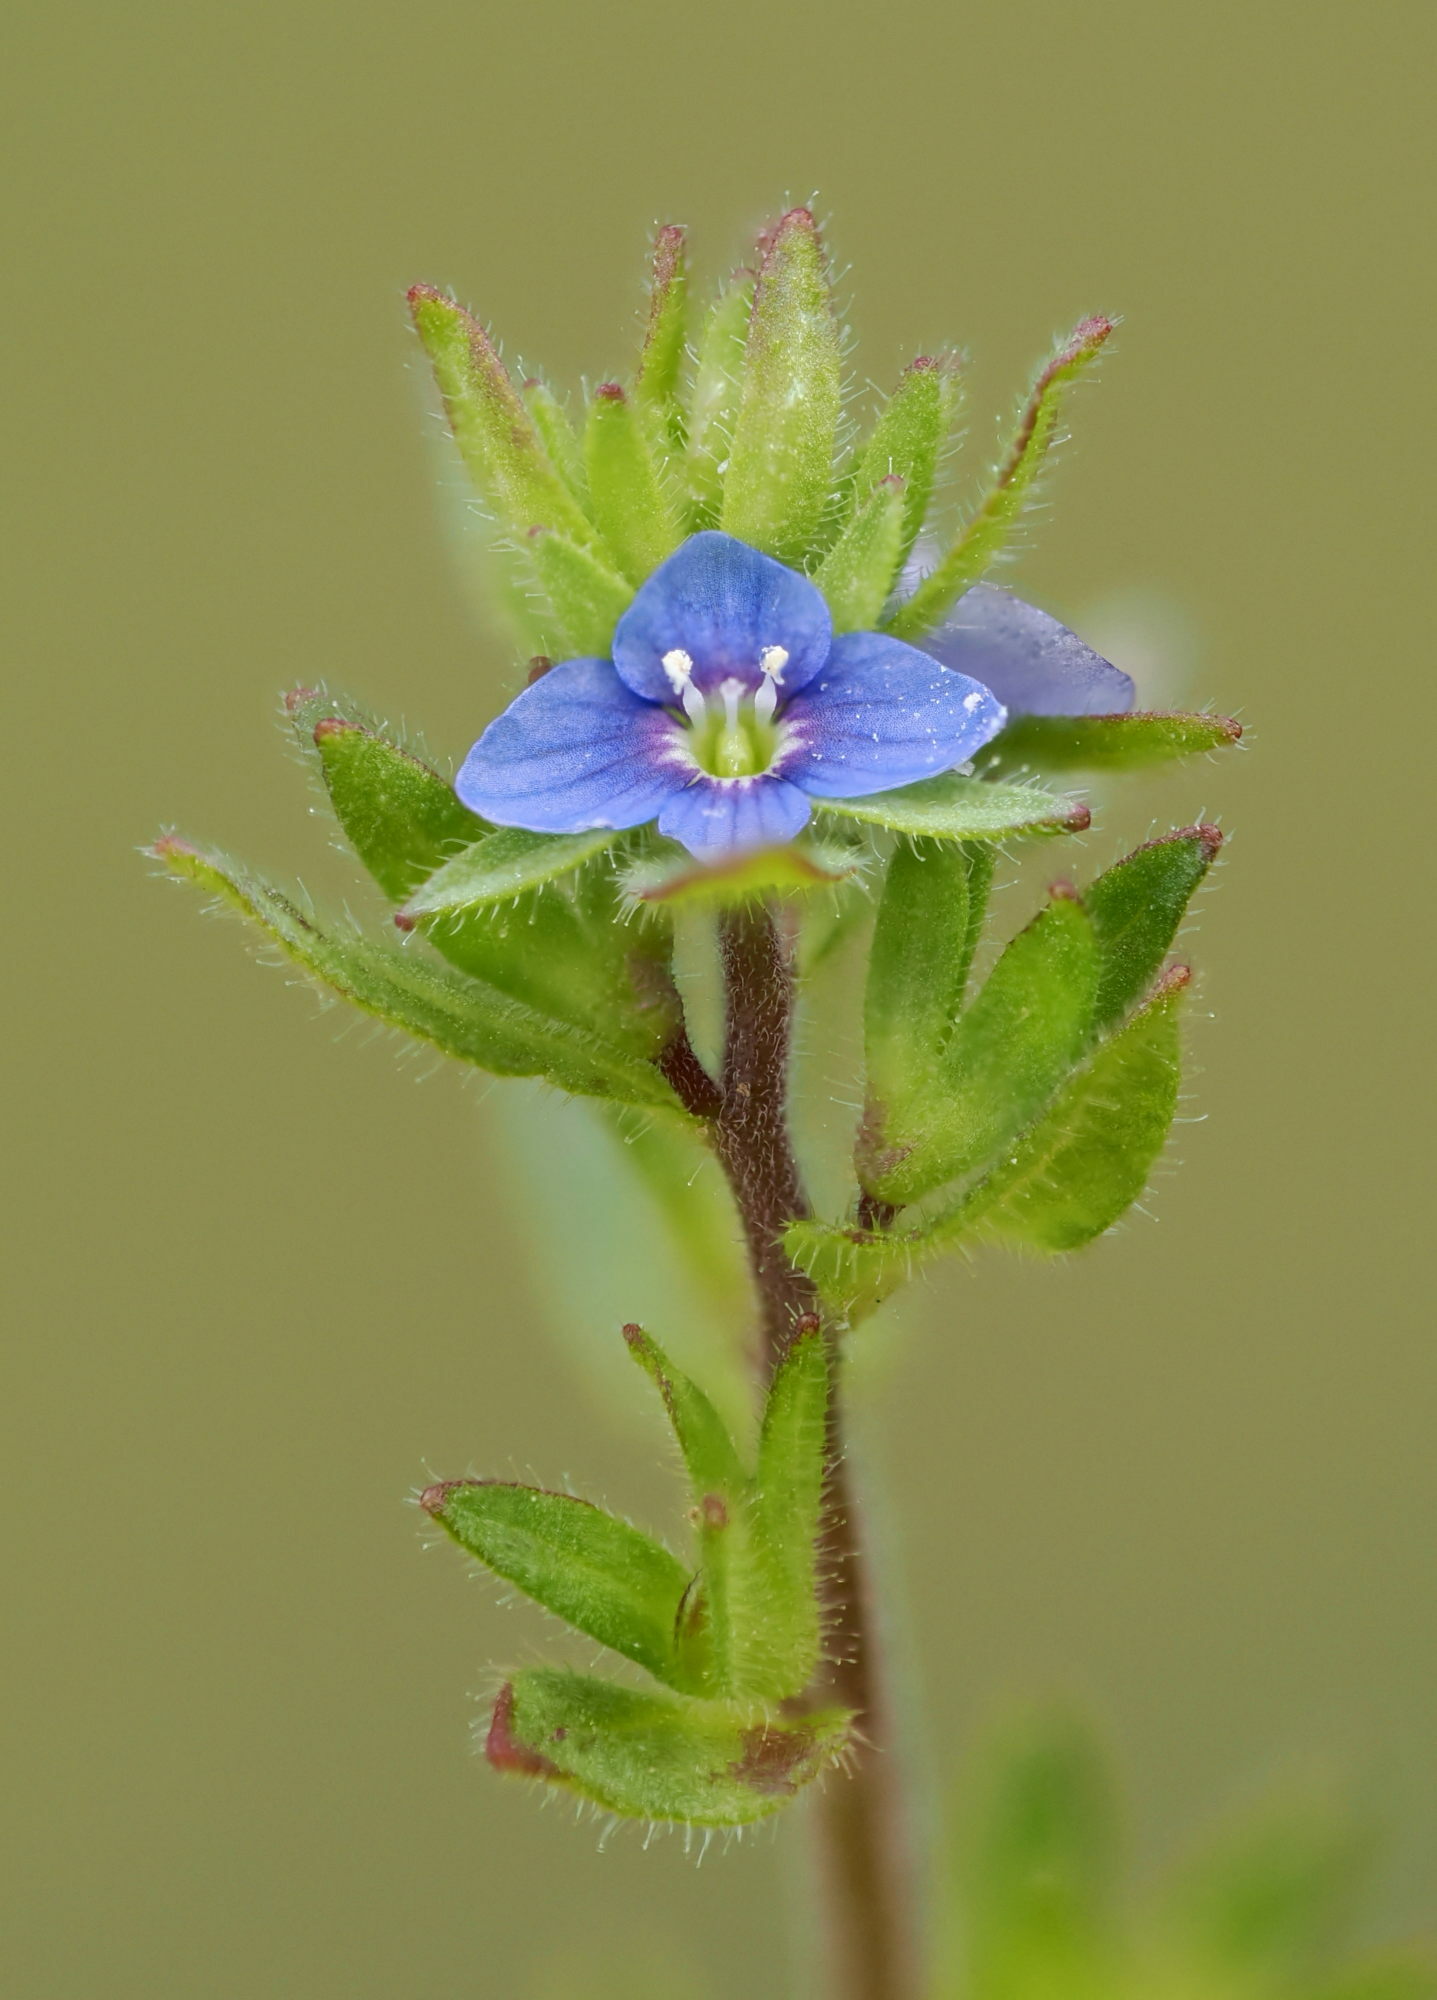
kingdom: Plantae
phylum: Tracheophyta
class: Magnoliopsida
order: Lamiales
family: Plantaginaceae
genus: Veronica
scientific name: Veronica arvensis
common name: Corn speedwell
